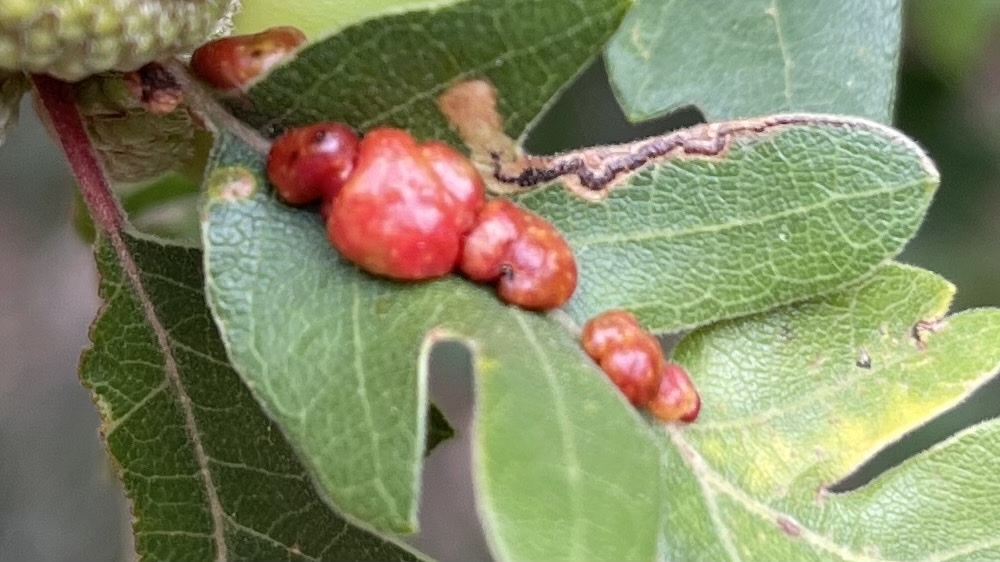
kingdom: Animalia
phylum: Arthropoda
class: Insecta
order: Hymenoptera
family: Cynipidae
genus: Trigonaspis
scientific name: Trigonaspis
